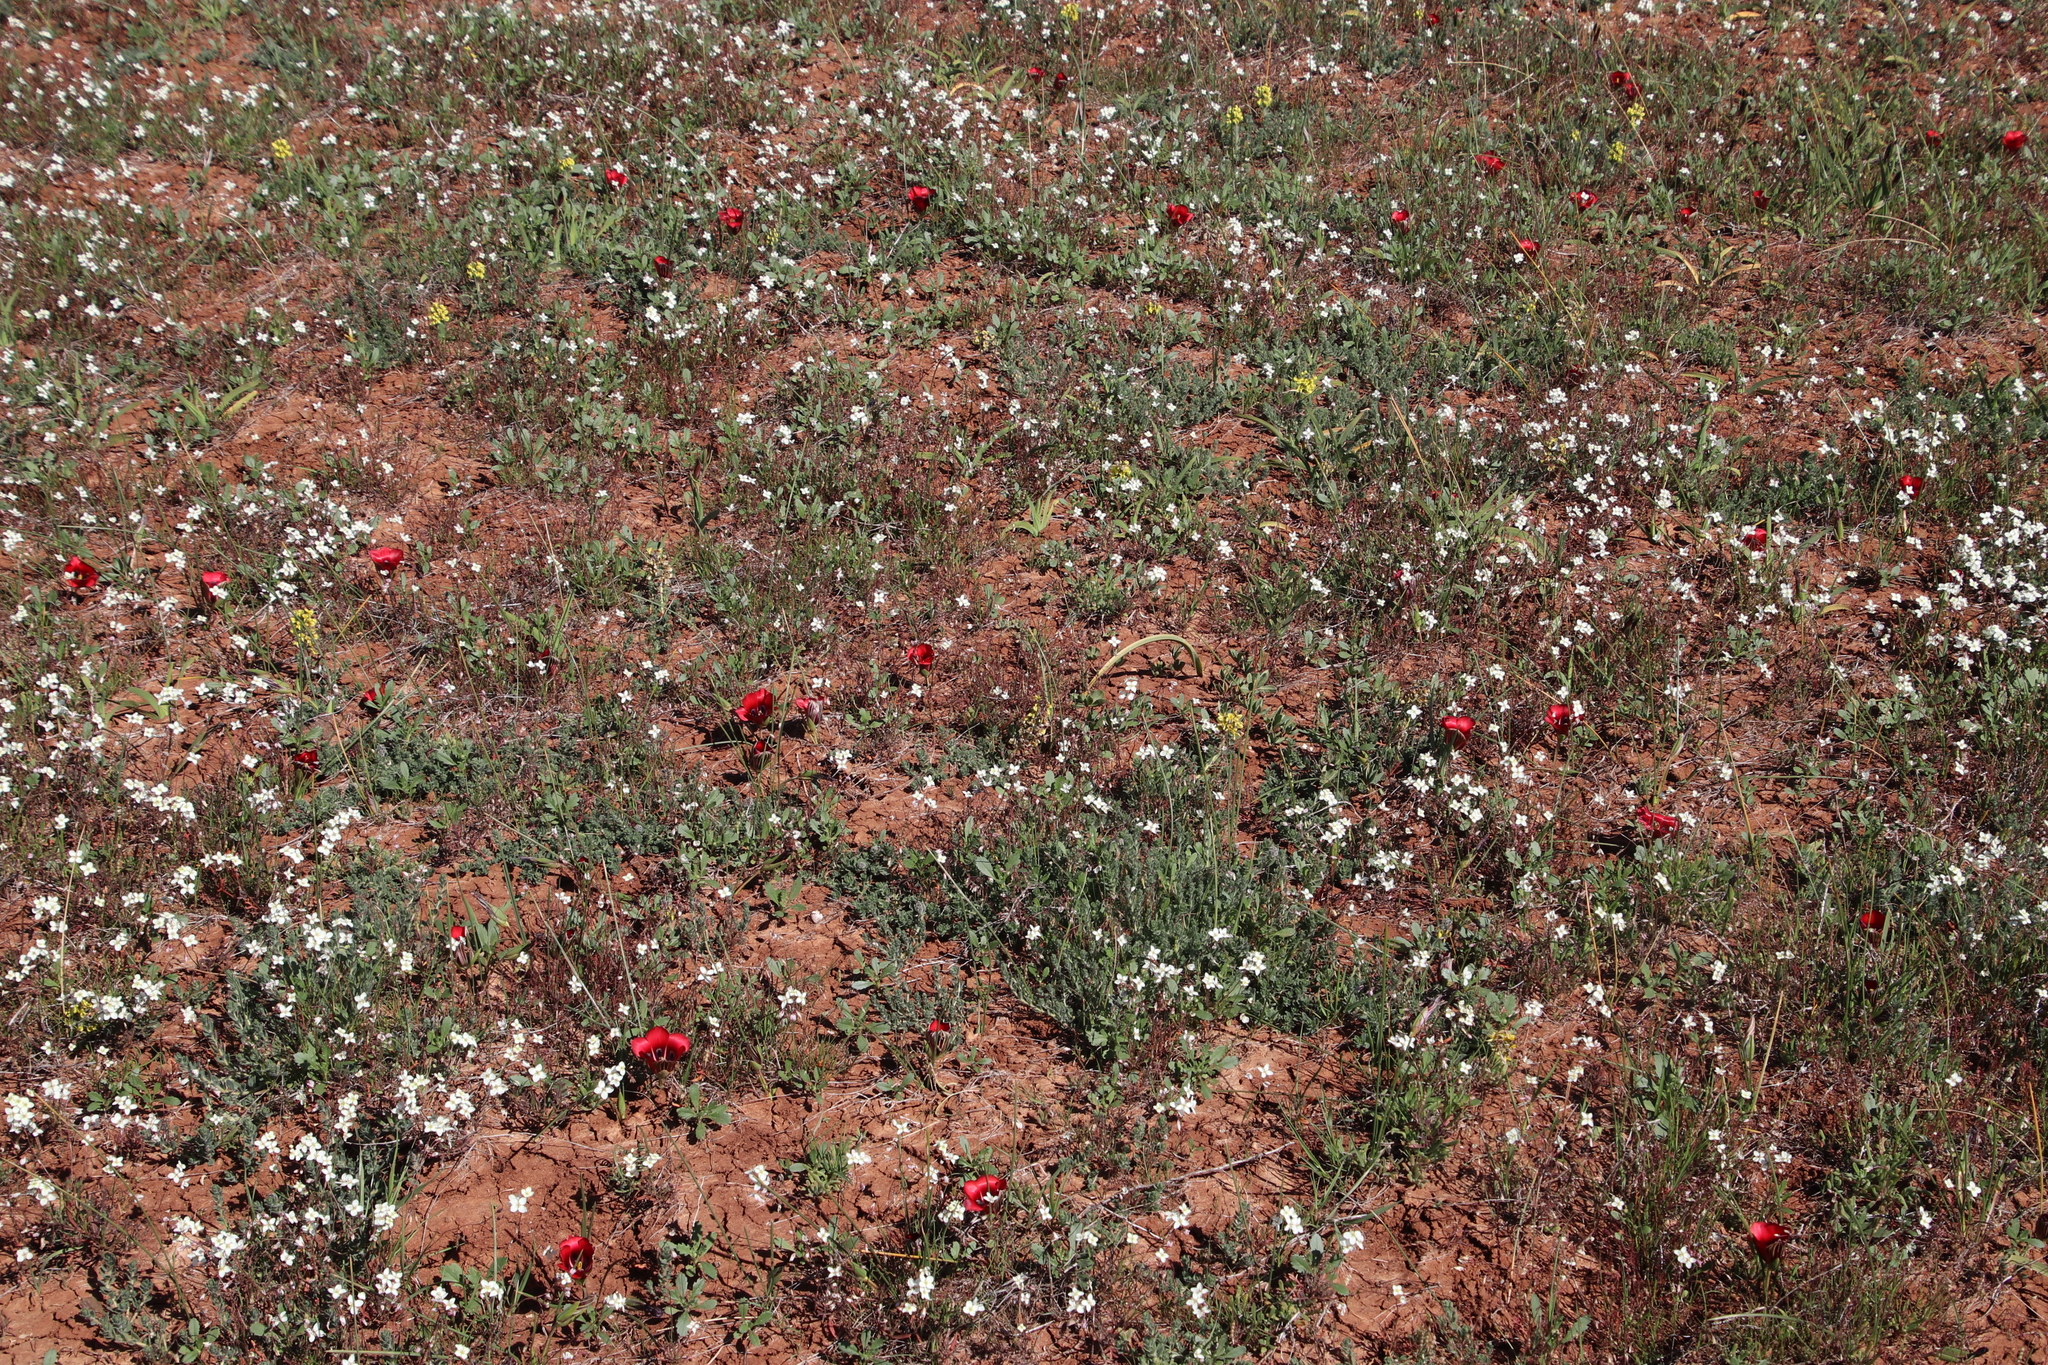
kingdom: Plantae
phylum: Tracheophyta
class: Liliopsida
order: Asparagales
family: Iridaceae
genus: Romulea
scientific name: Romulea monadelpha
